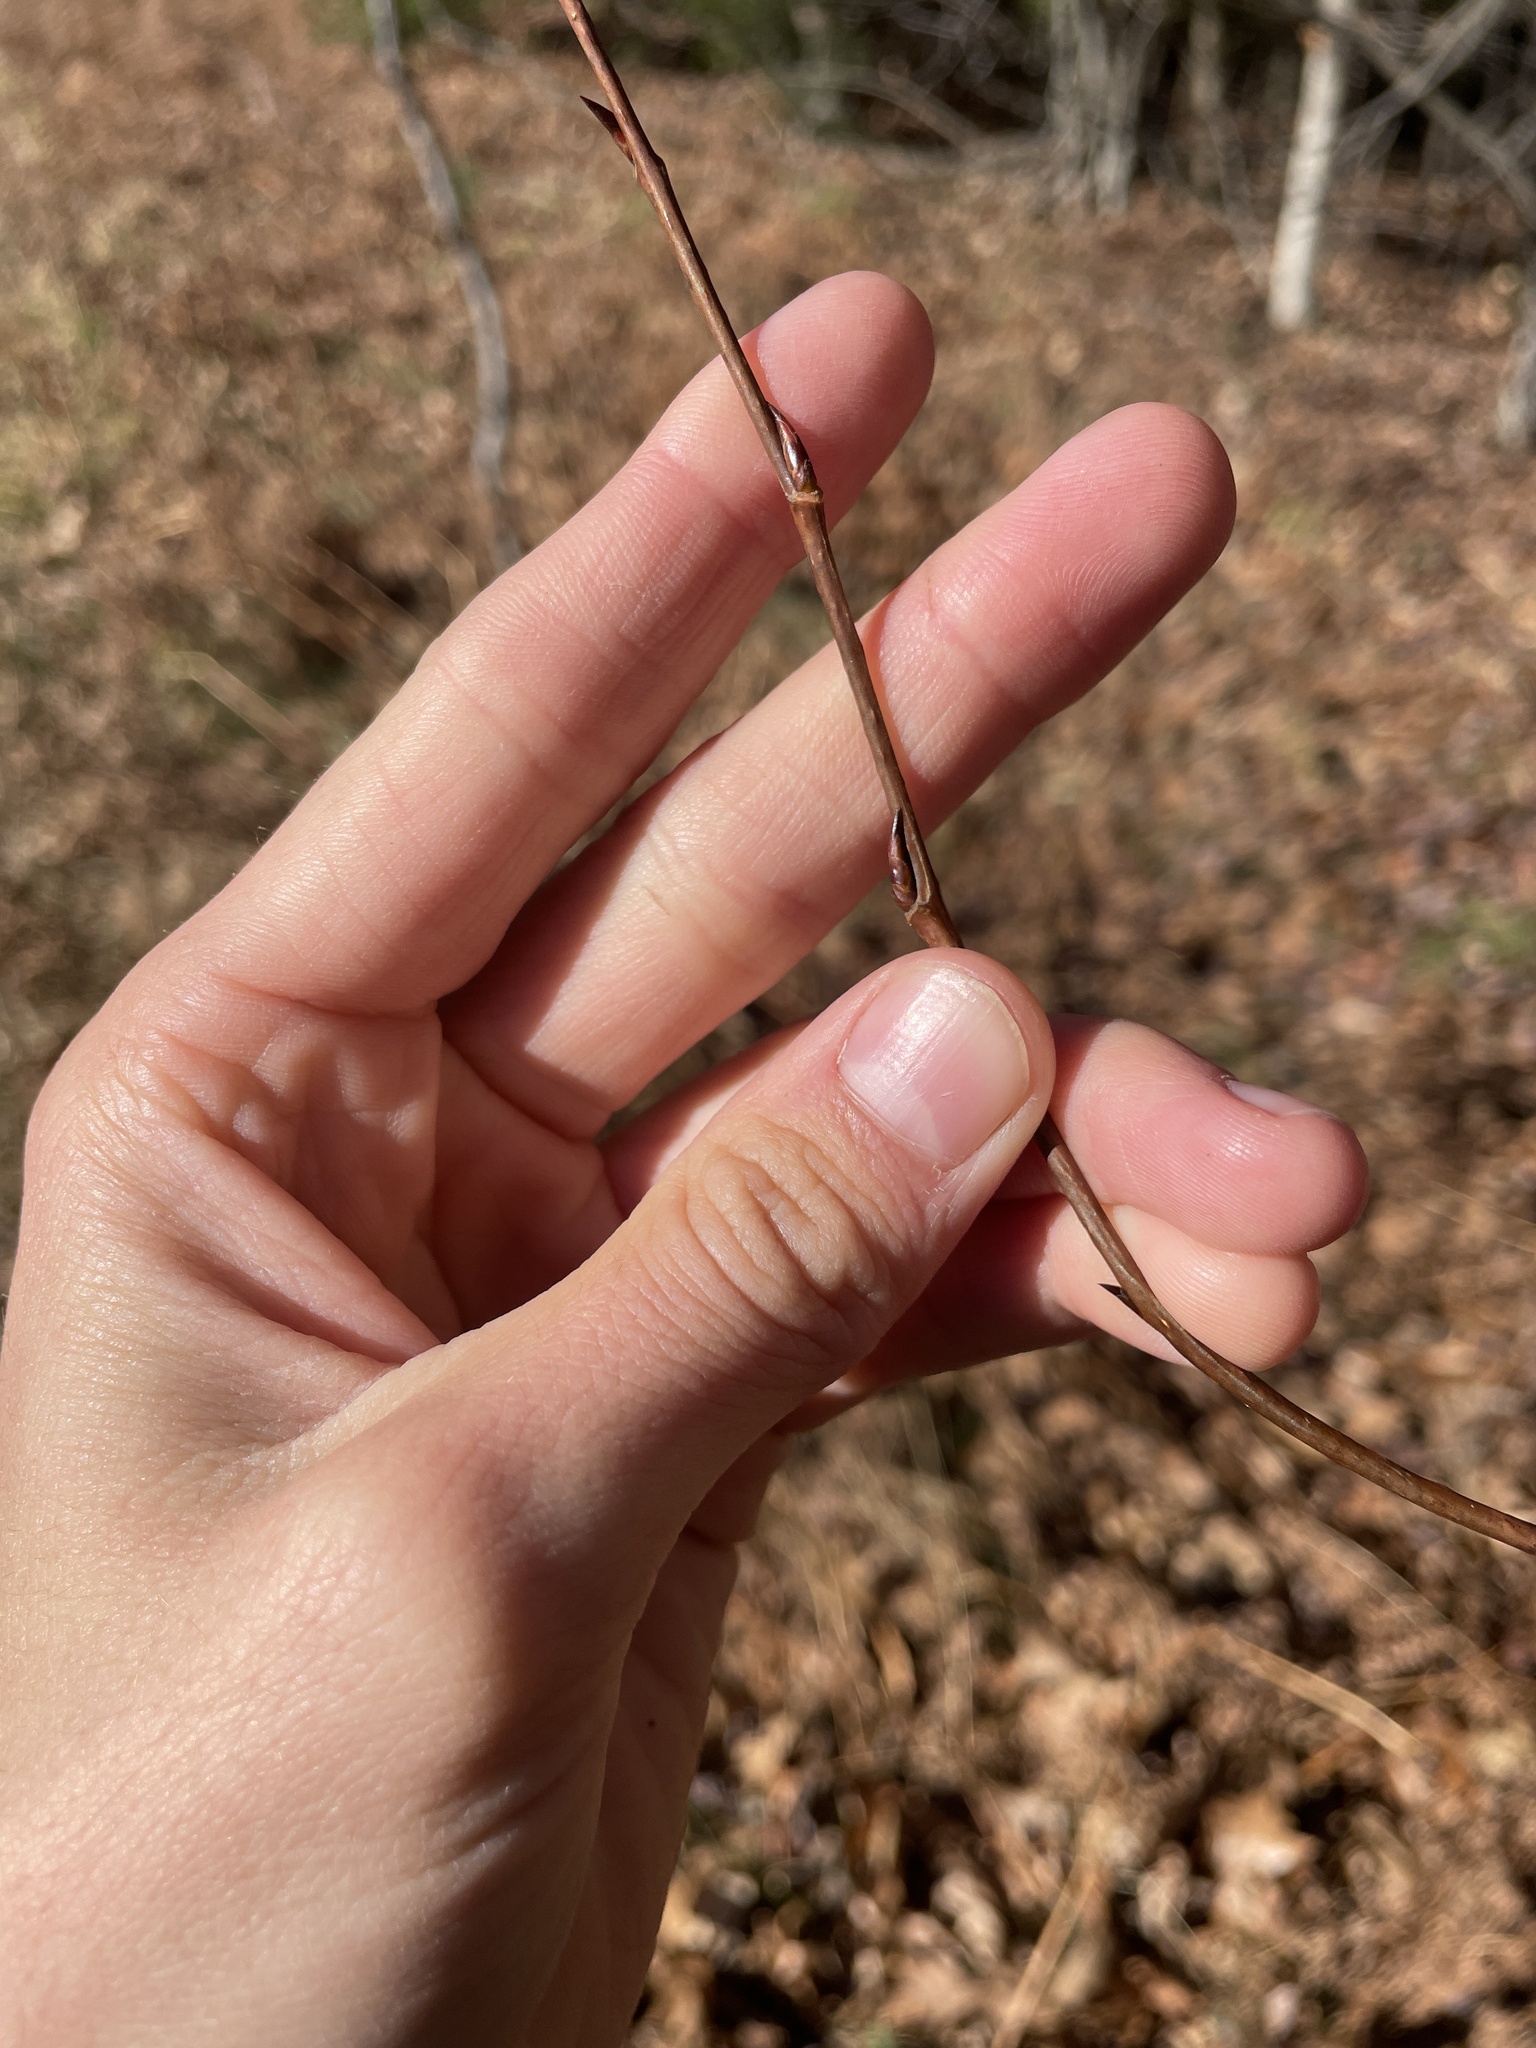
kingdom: Plantae
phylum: Tracheophyta
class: Magnoliopsida
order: Malpighiales
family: Salicaceae
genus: Populus
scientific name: Populus tremuloides
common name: Quaking aspen
